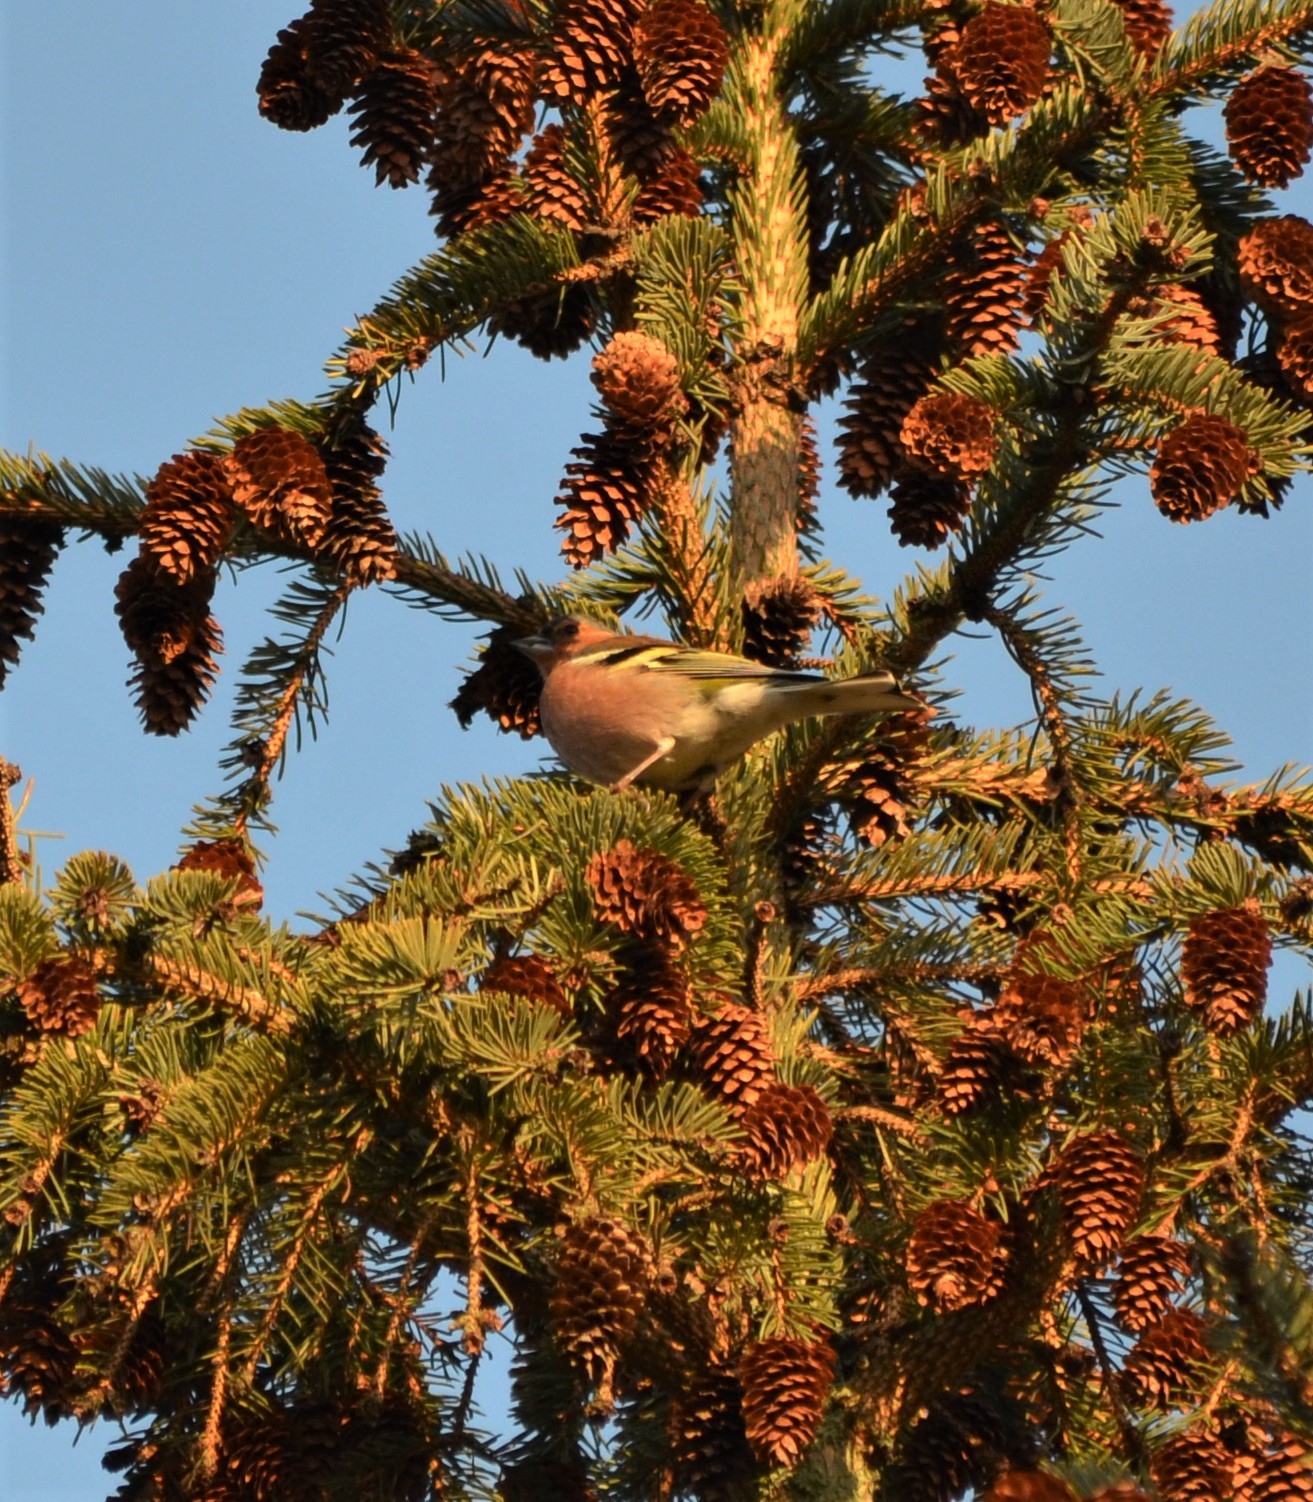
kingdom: Animalia
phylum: Chordata
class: Aves
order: Passeriformes
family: Fringillidae
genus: Fringilla
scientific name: Fringilla coelebs
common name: Common chaffinch
